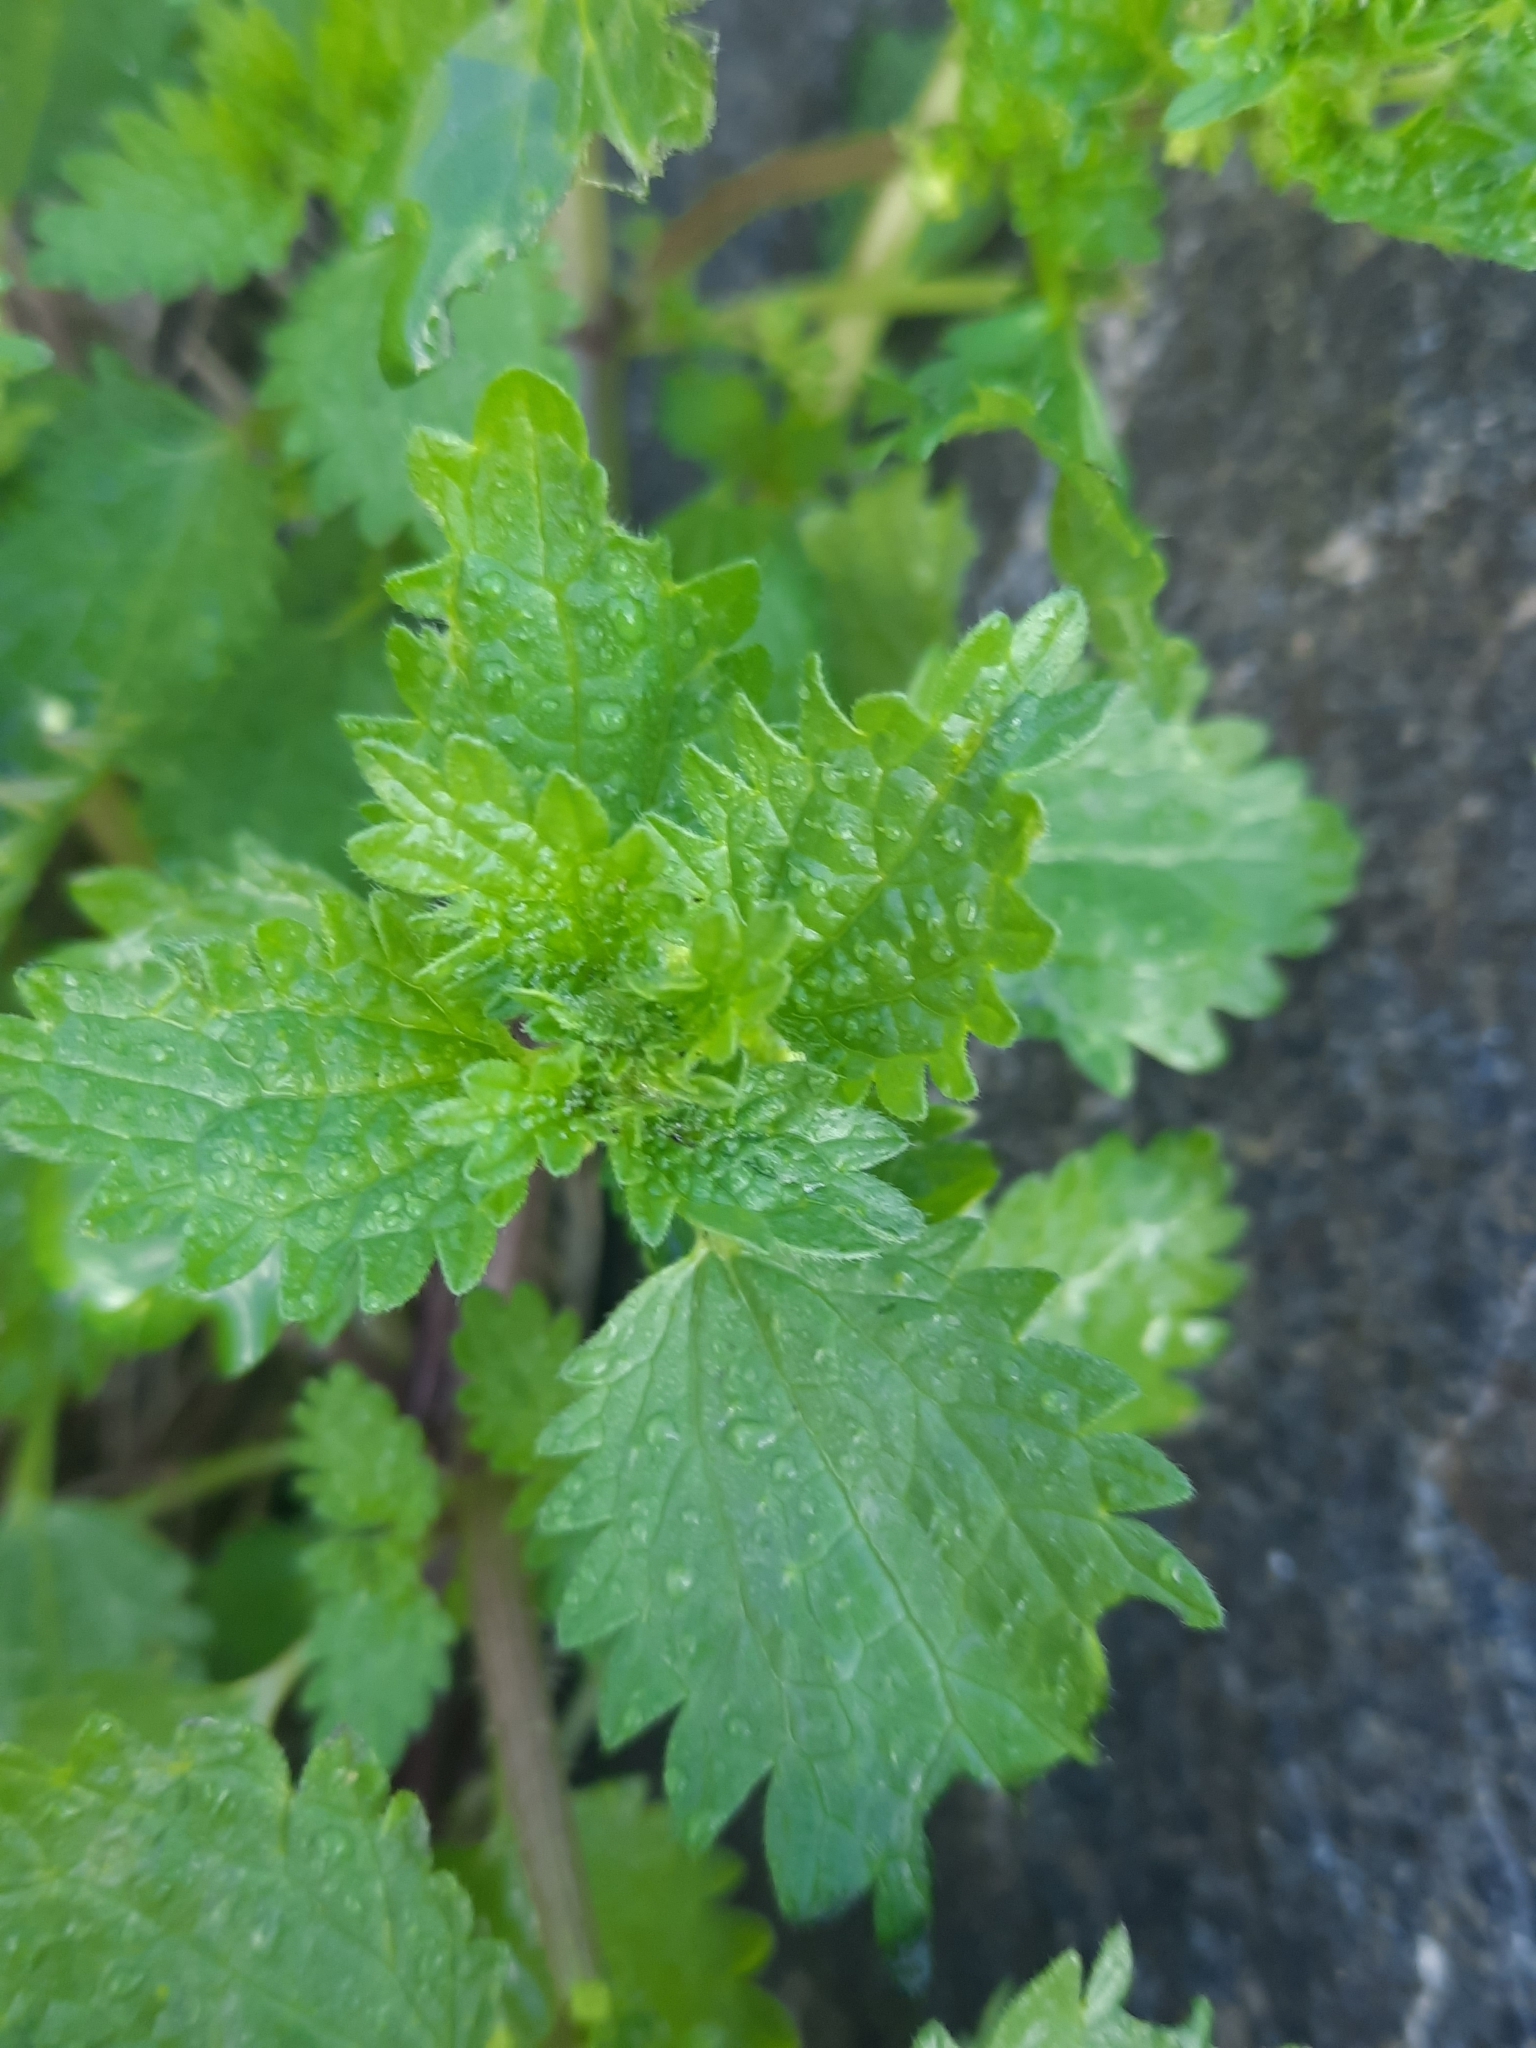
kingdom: Plantae
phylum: Tracheophyta
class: Magnoliopsida
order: Rosales
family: Urticaceae
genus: Urtica
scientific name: Urtica urens
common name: Dwarf nettle
